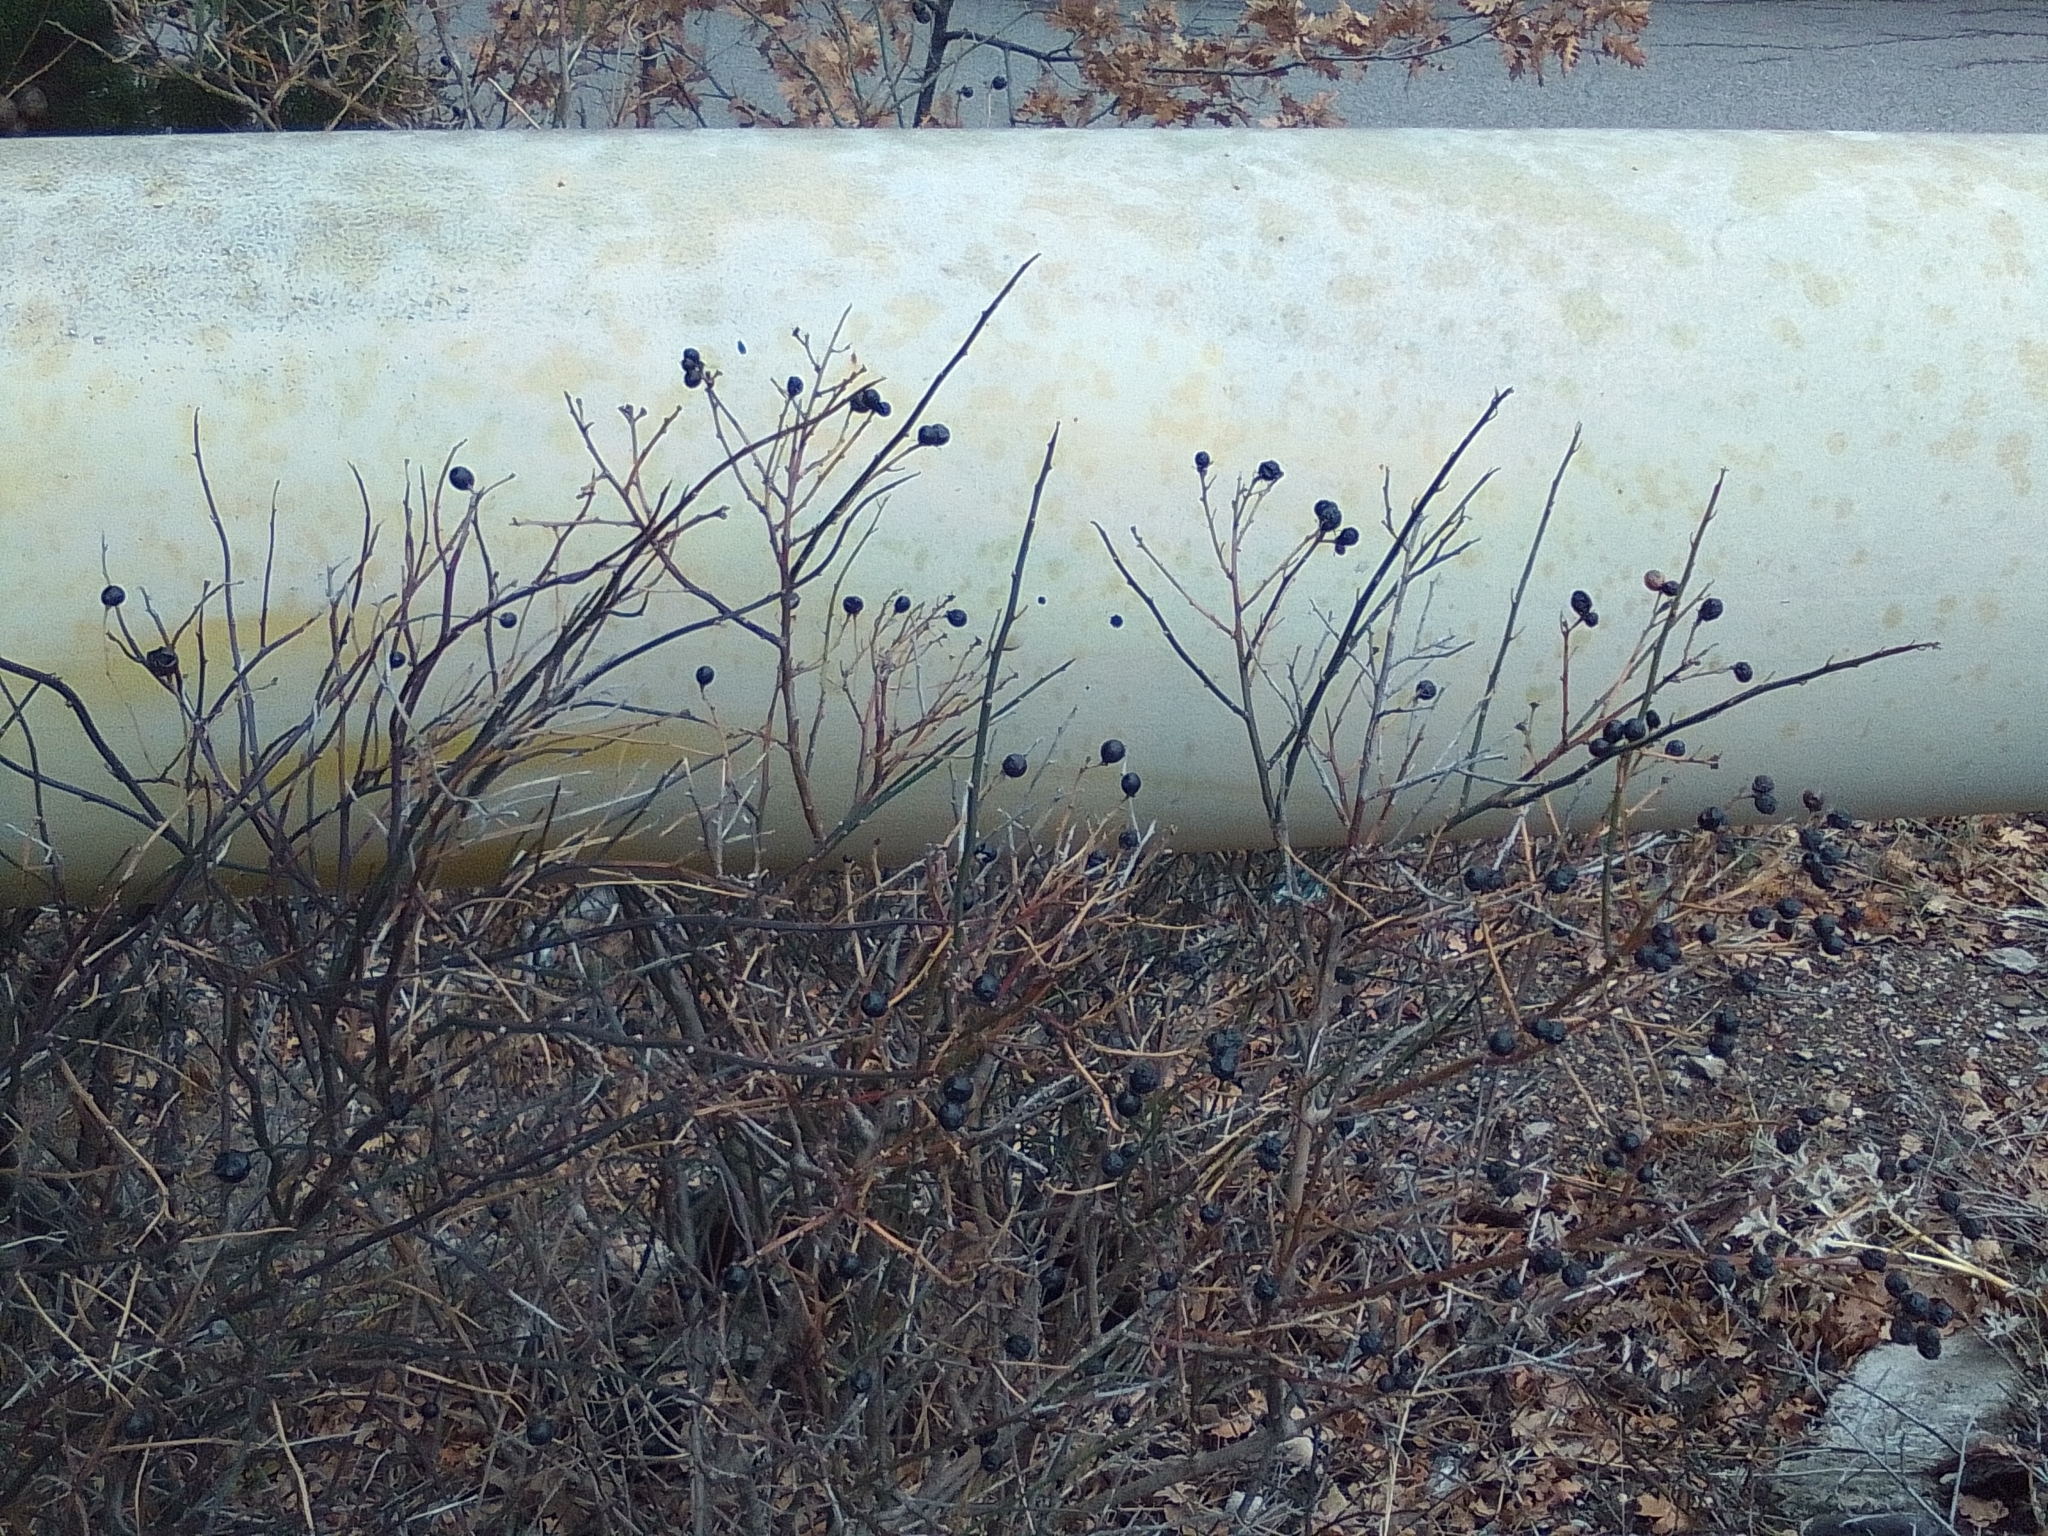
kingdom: Plantae
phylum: Tracheophyta
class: Magnoliopsida
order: Lamiales
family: Oleaceae
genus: Chrysojasminum
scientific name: Chrysojasminum fruticans
